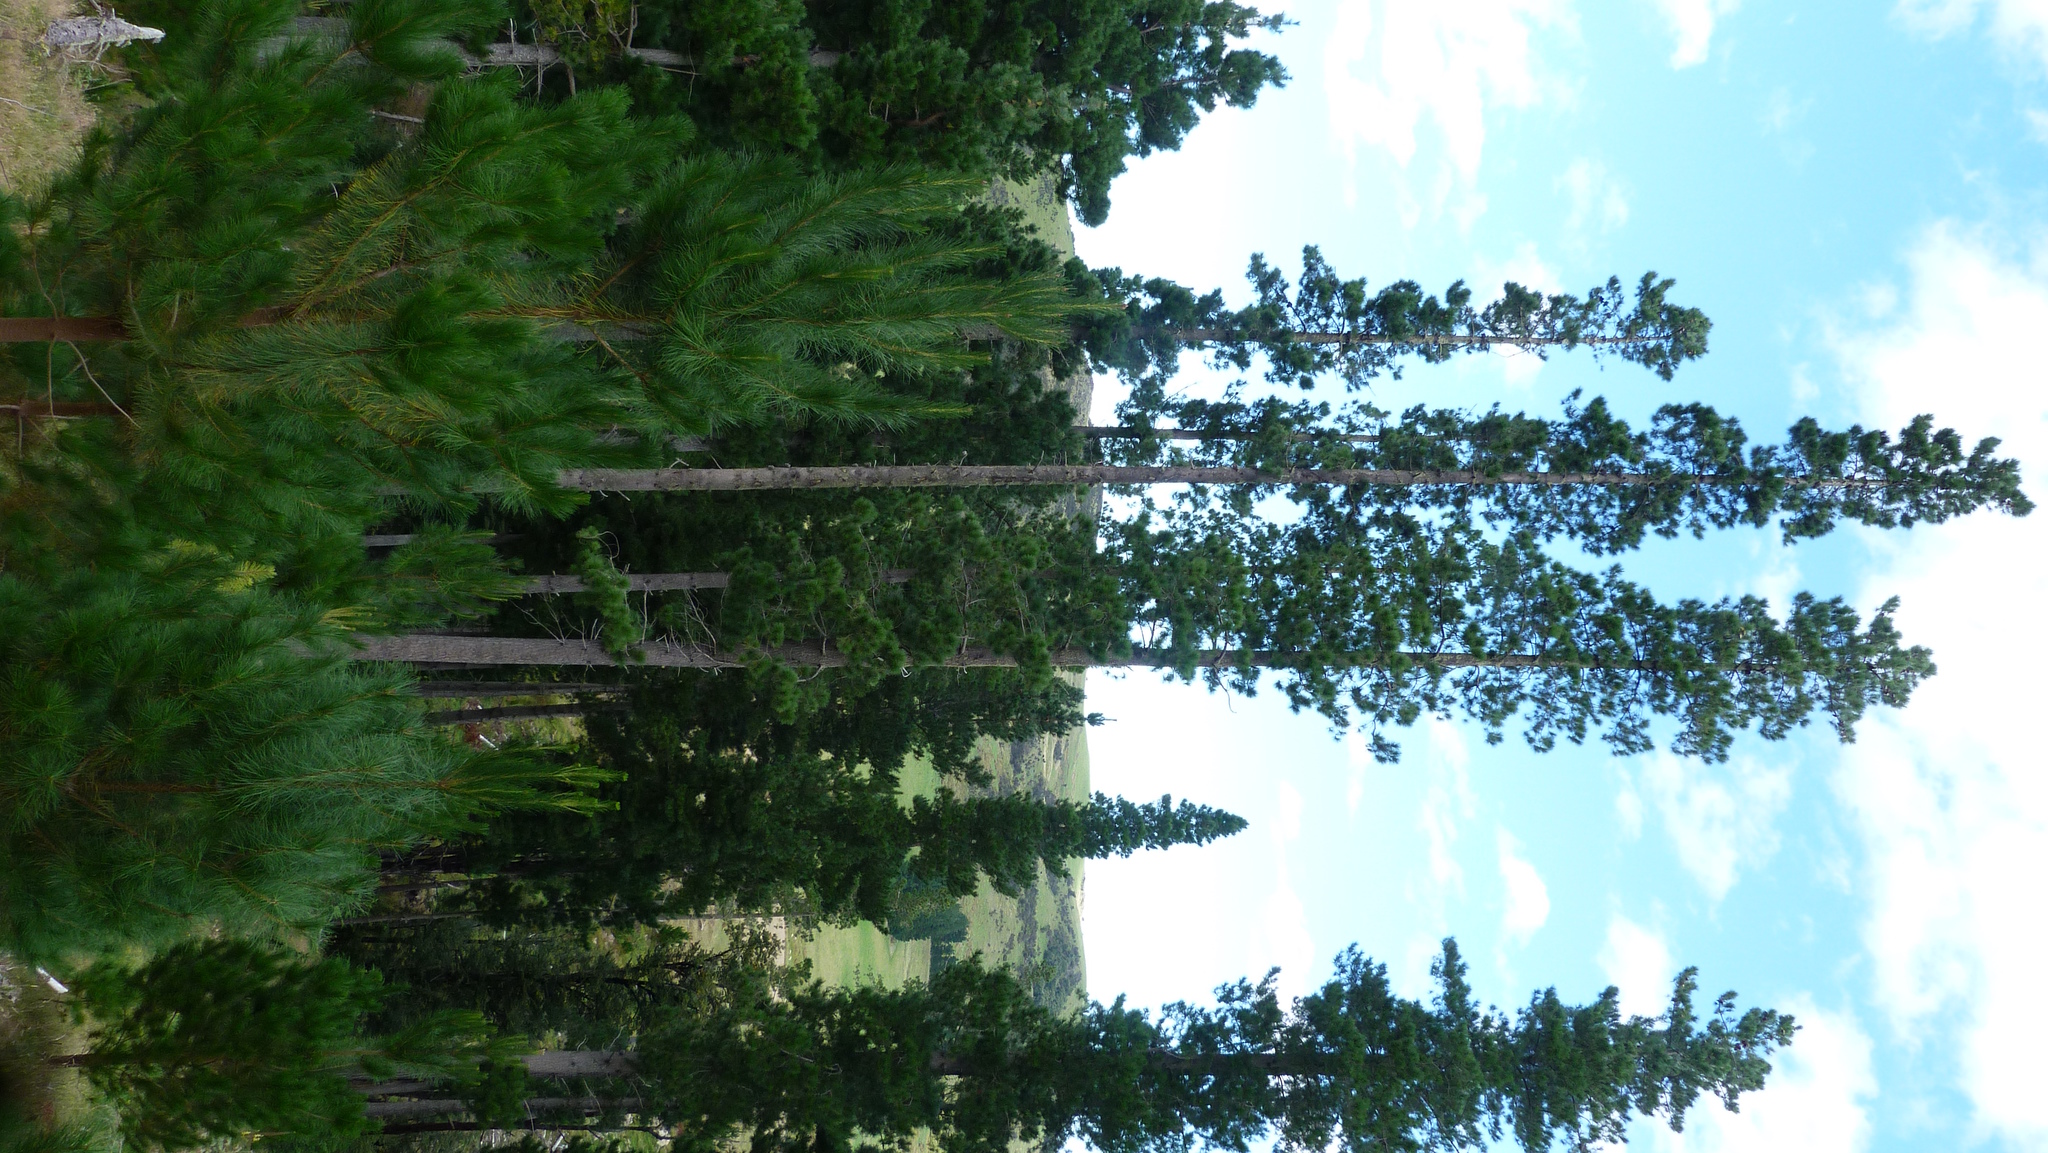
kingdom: Plantae
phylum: Tracheophyta
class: Pinopsida
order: Pinales
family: Pinaceae
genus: Pinus
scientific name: Pinus radiata
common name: Monterey pine
